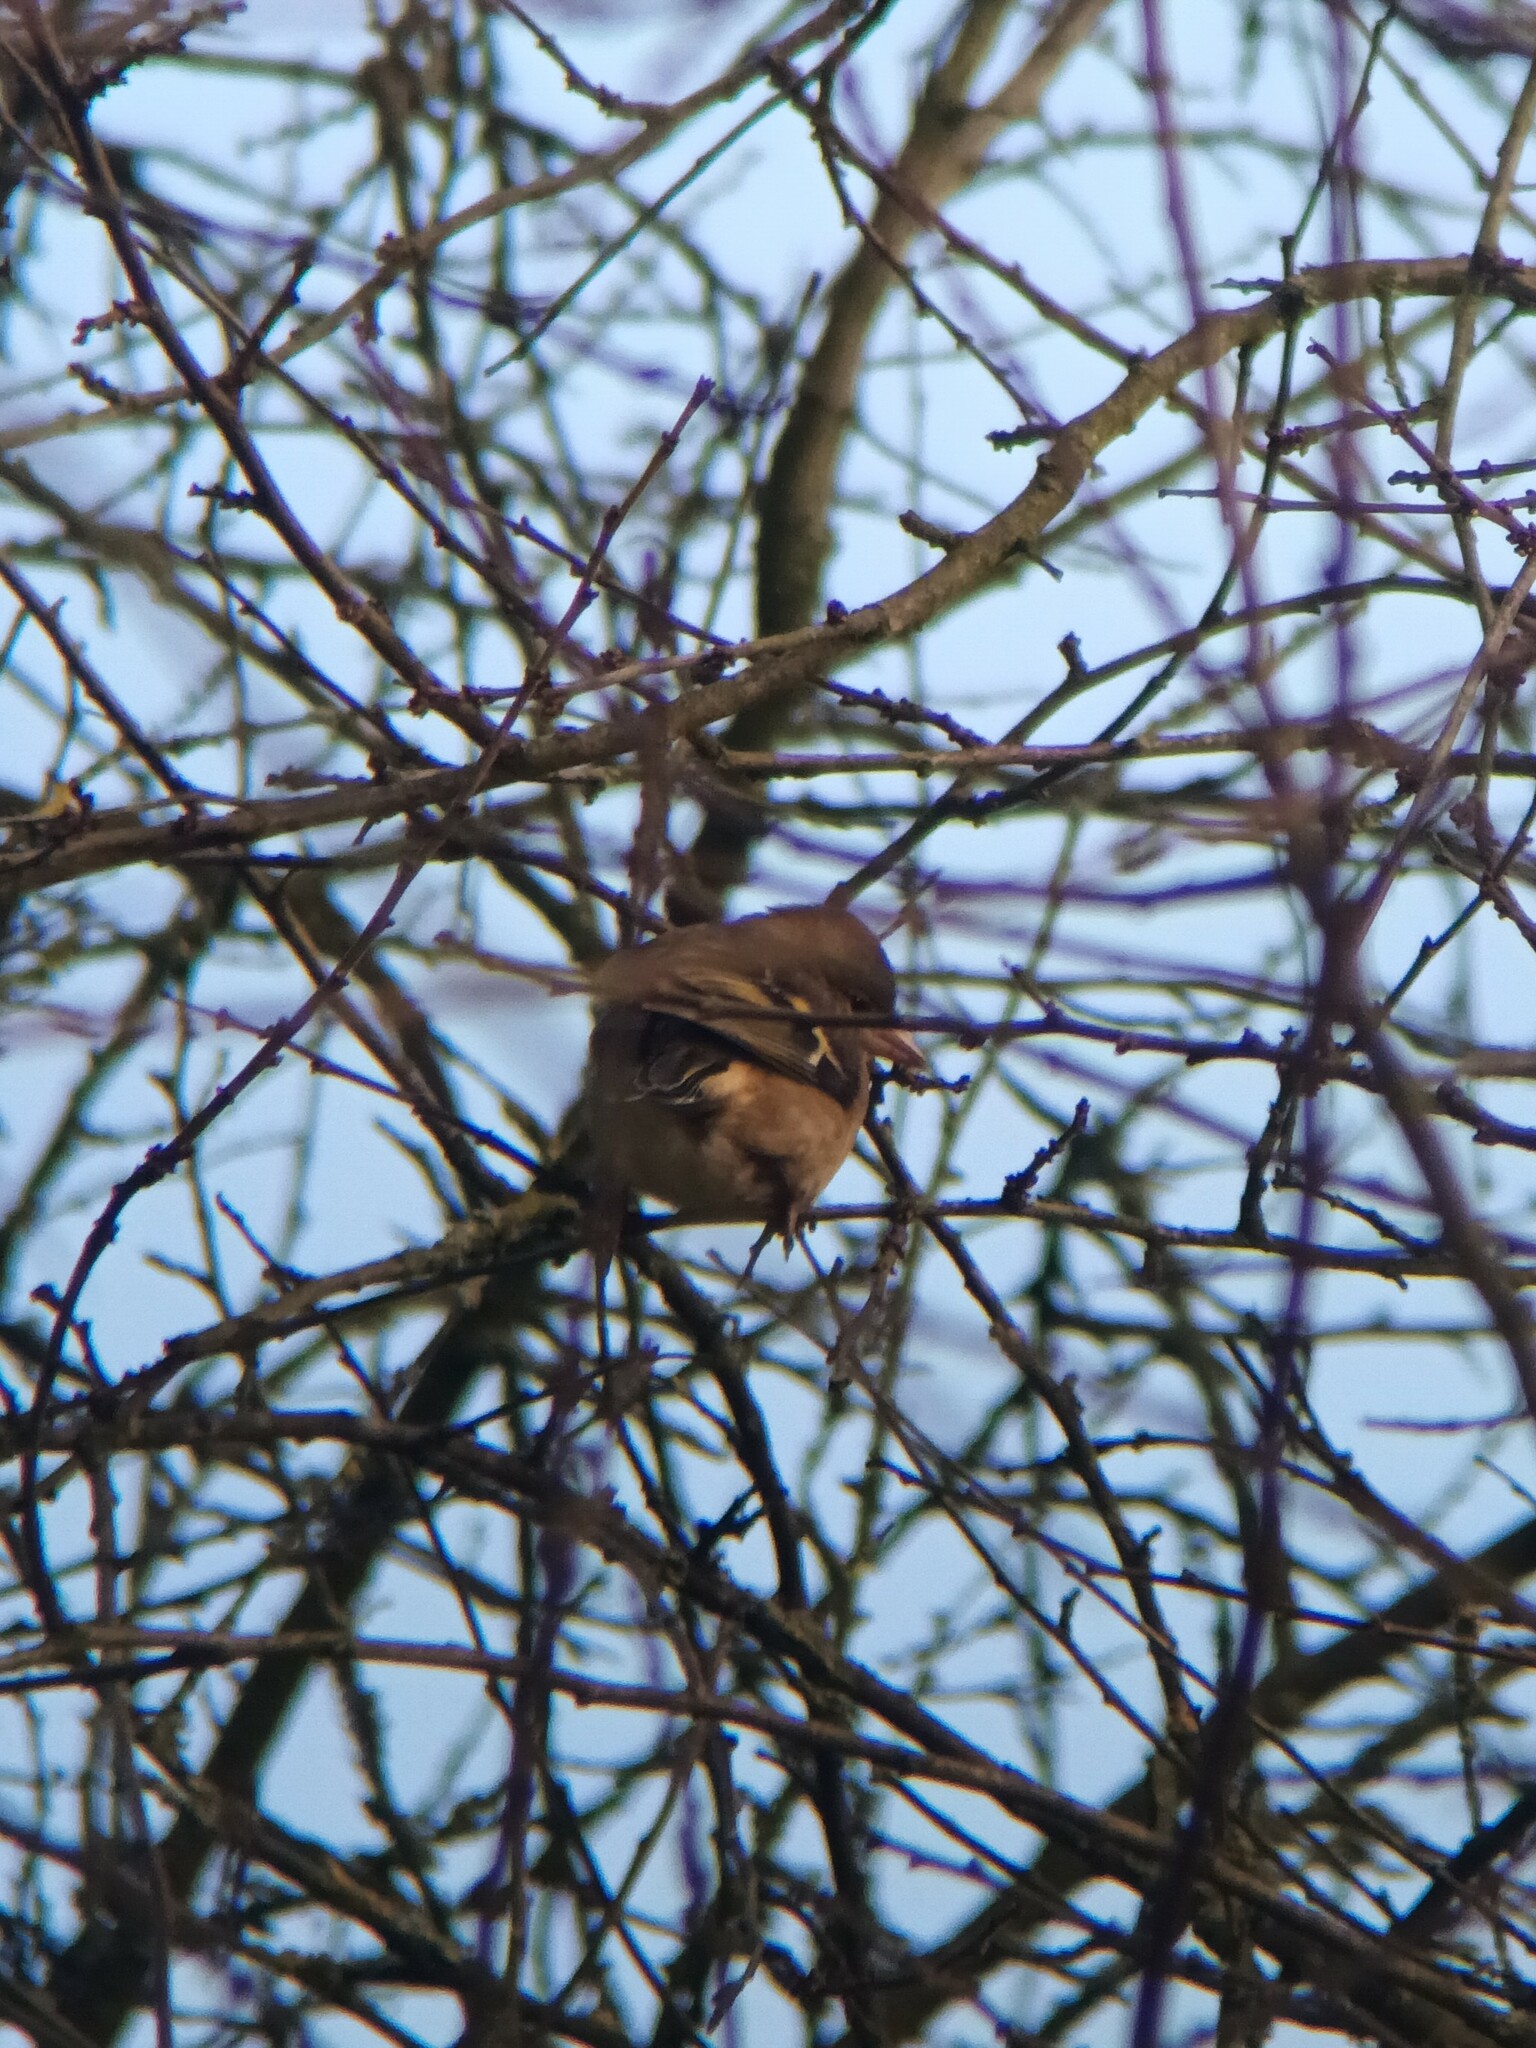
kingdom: Animalia
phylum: Chordata
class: Aves
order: Passeriformes
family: Fringillidae
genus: Fringilla
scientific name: Fringilla coelebs
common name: Common chaffinch
